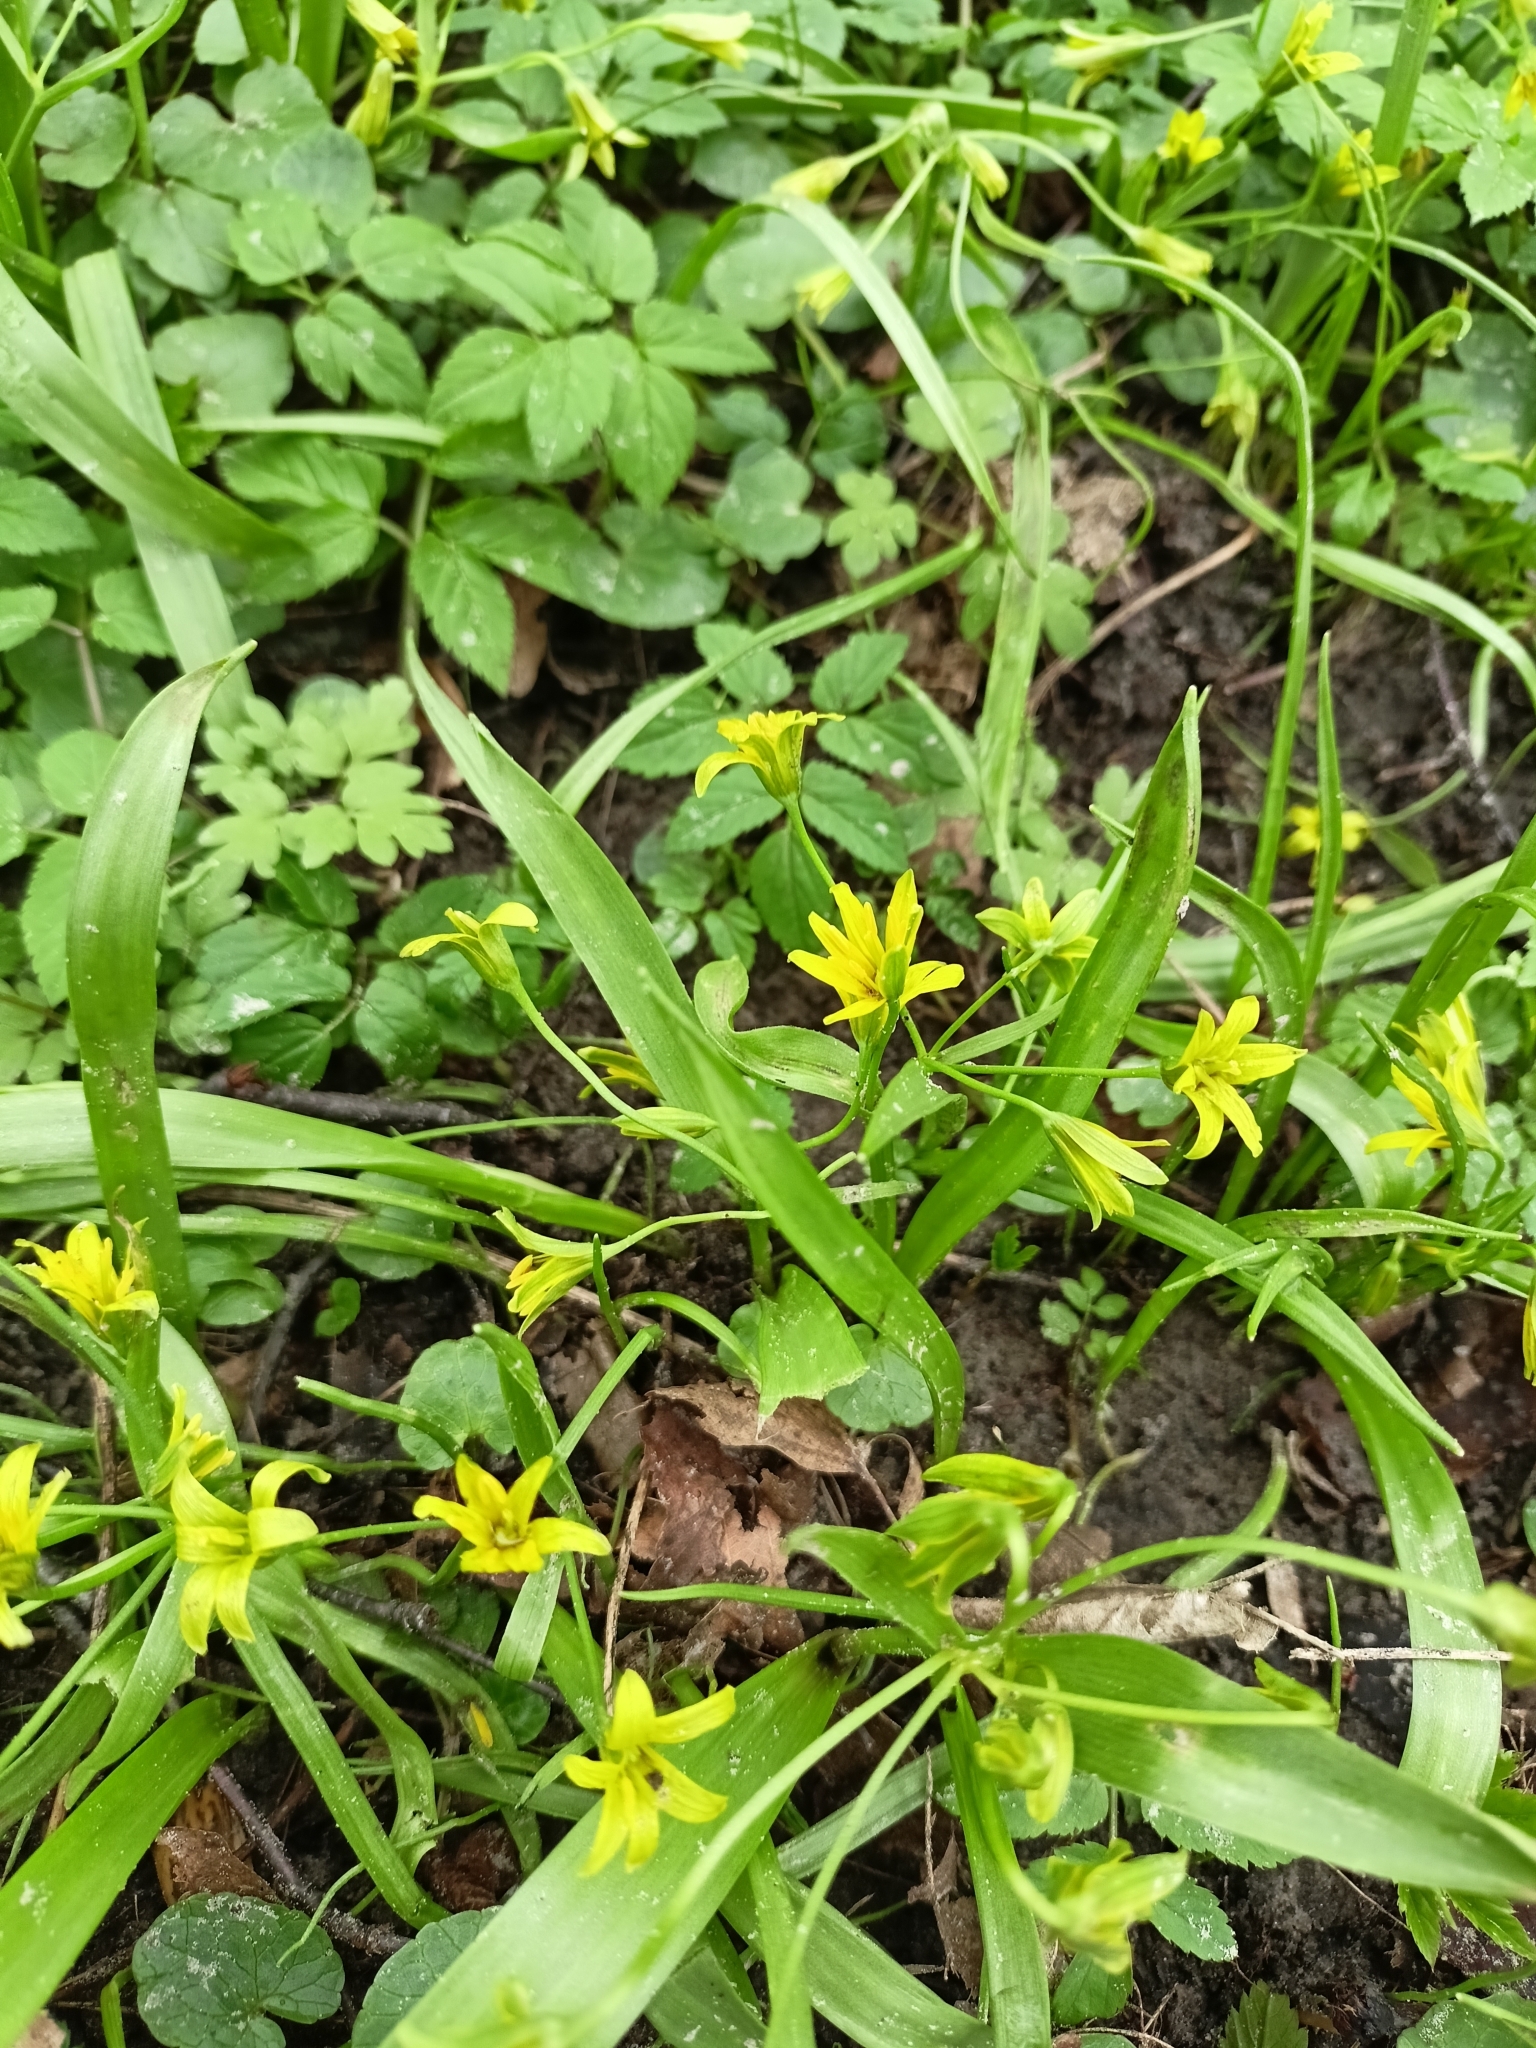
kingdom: Plantae
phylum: Tracheophyta
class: Liliopsida
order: Liliales
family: Liliaceae
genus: Gagea
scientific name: Gagea lutea
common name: Yellow star-of-bethlehem
